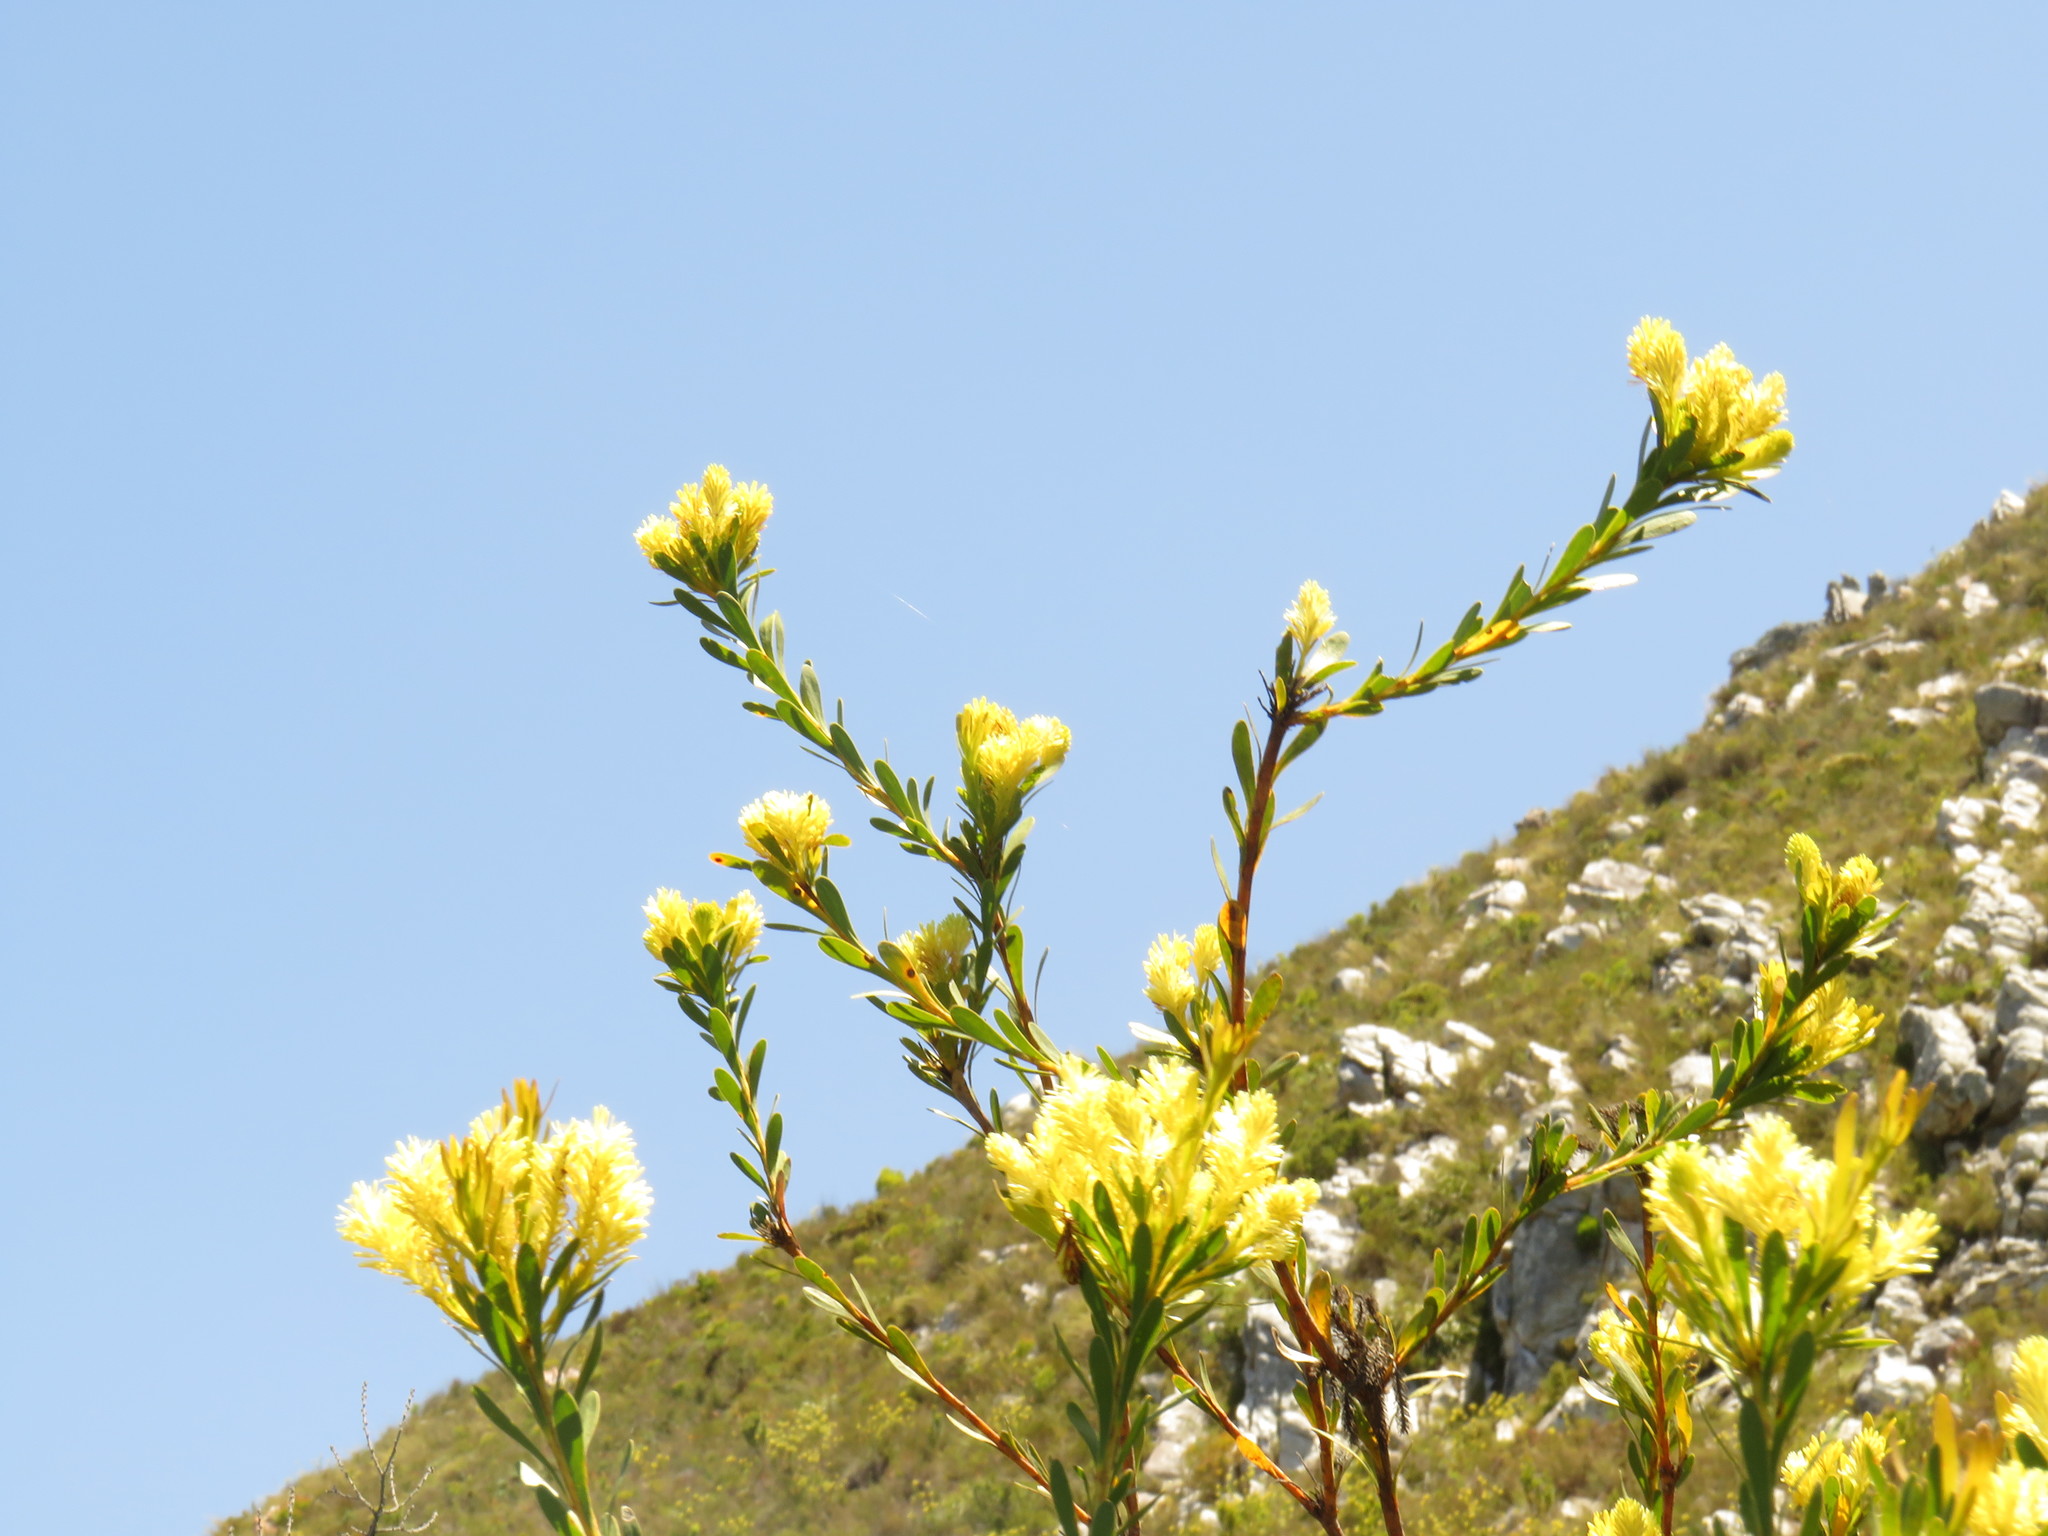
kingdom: Plantae
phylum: Tracheophyta
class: Magnoliopsida
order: Proteales
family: Proteaceae
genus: Aulax
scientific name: Aulax umbellata
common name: Broad-leaf featherbush
